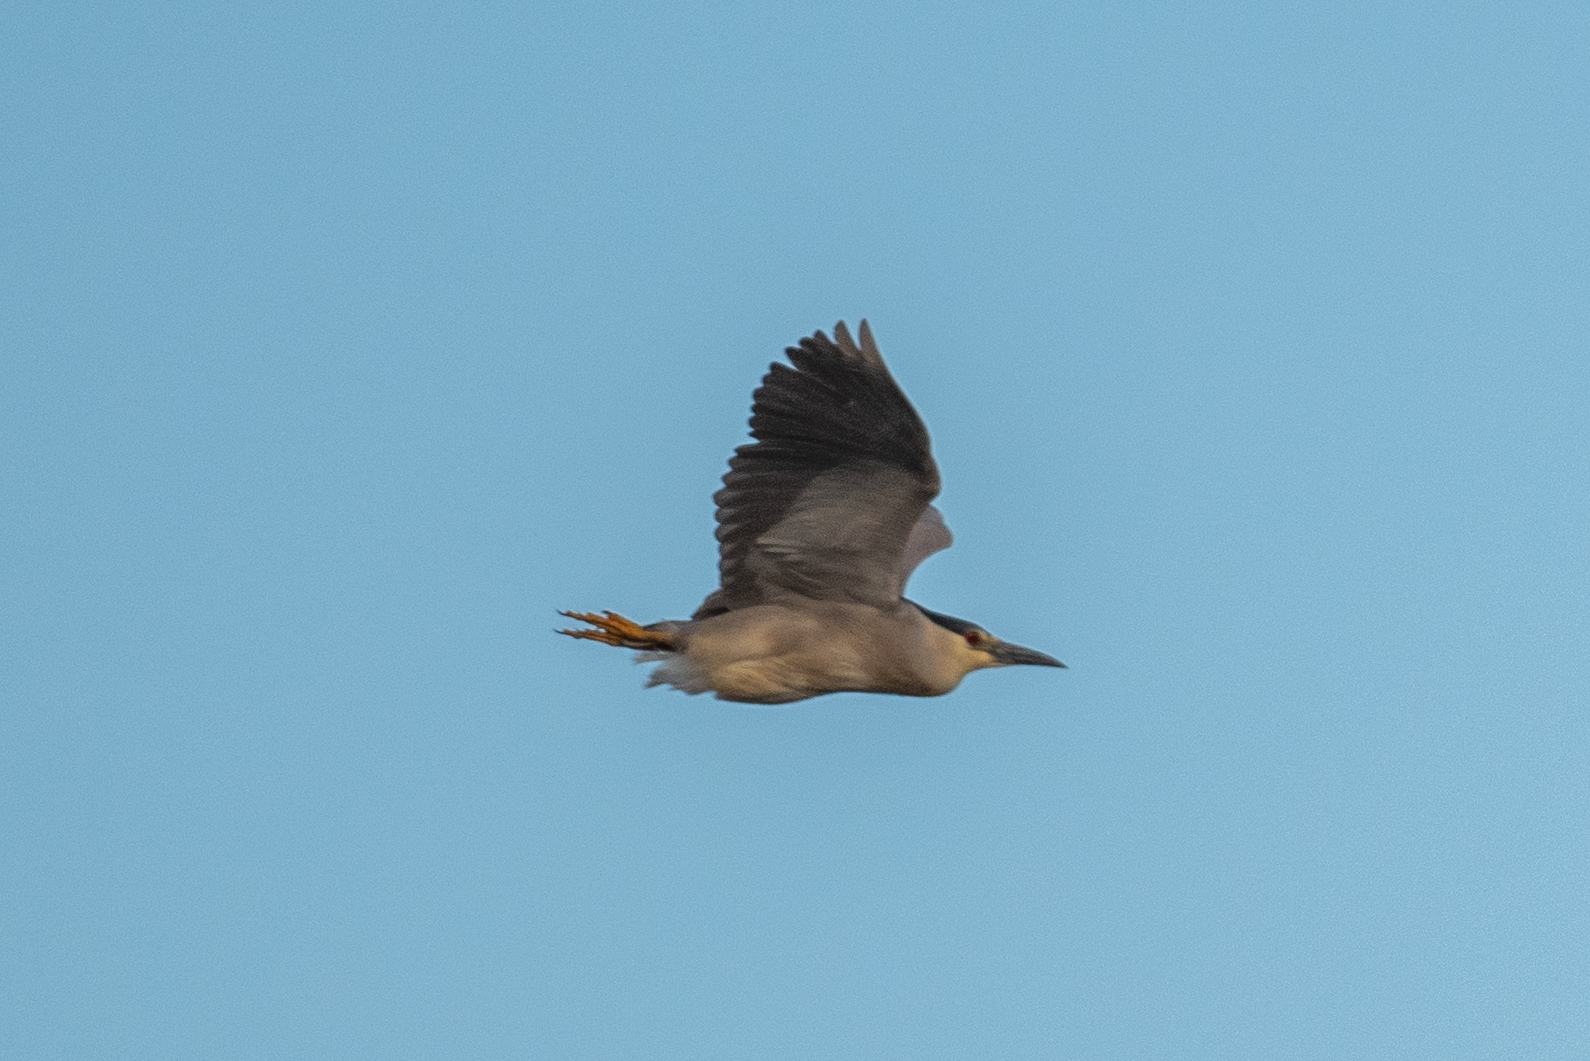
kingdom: Animalia
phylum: Chordata
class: Aves
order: Pelecaniformes
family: Ardeidae
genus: Nycticorax
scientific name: Nycticorax nycticorax
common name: Black-crowned night heron
